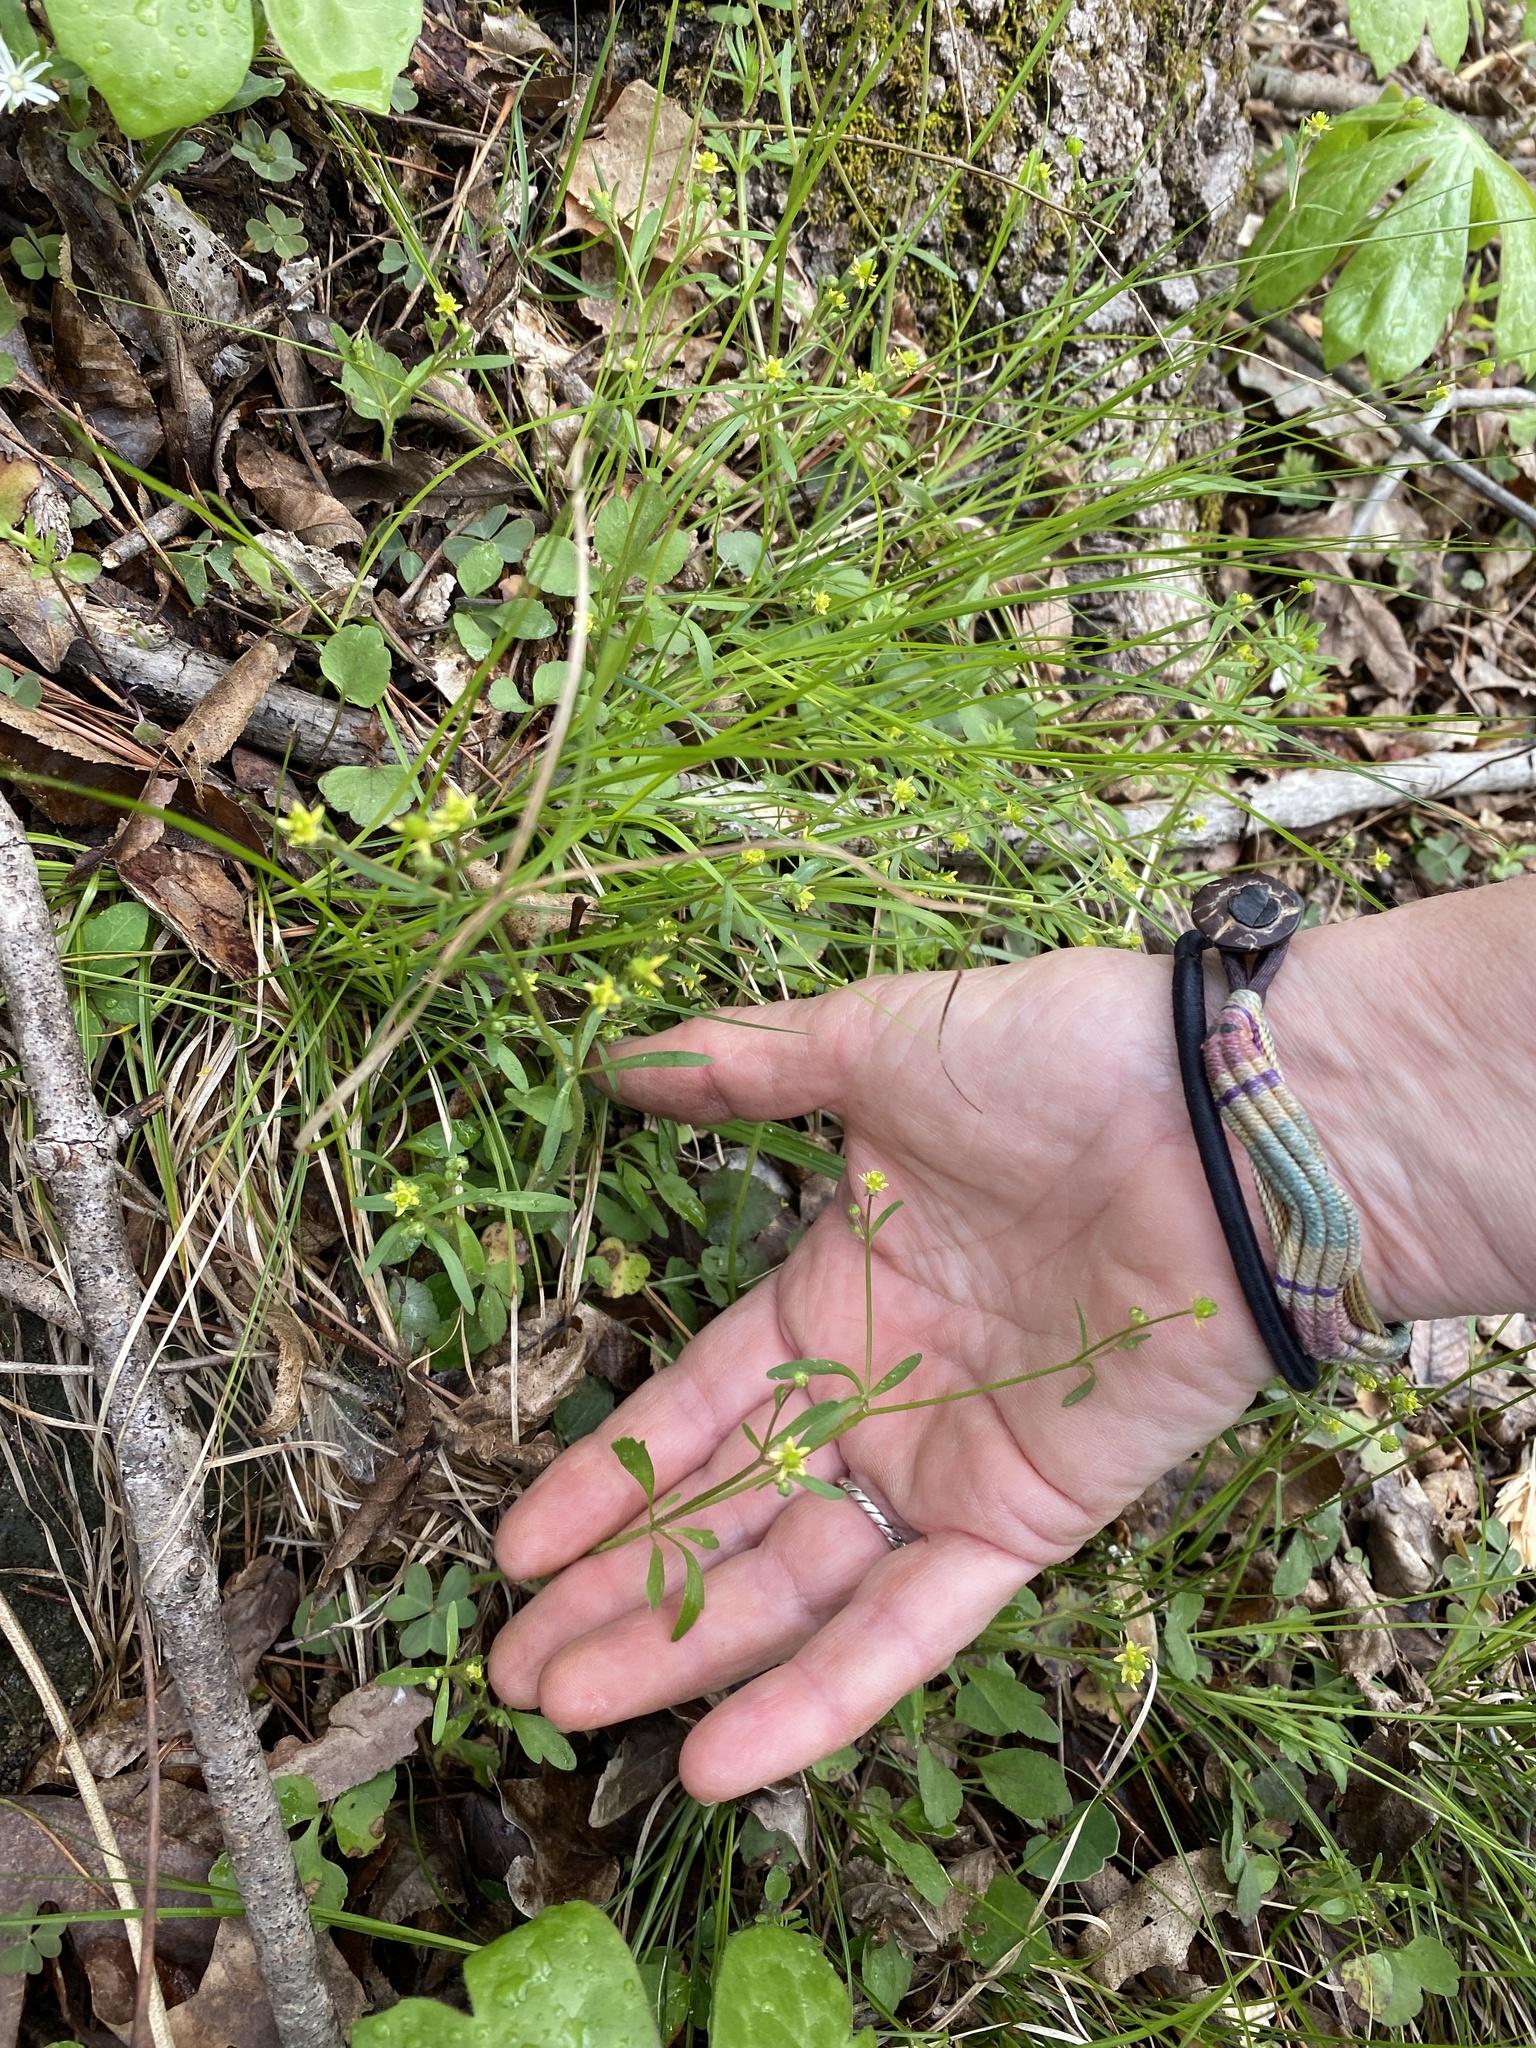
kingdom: Plantae
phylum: Tracheophyta
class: Magnoliopsida
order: Ranunculales
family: Ranunculaceae
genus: Ranunculus
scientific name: Ranunculus micranthus
